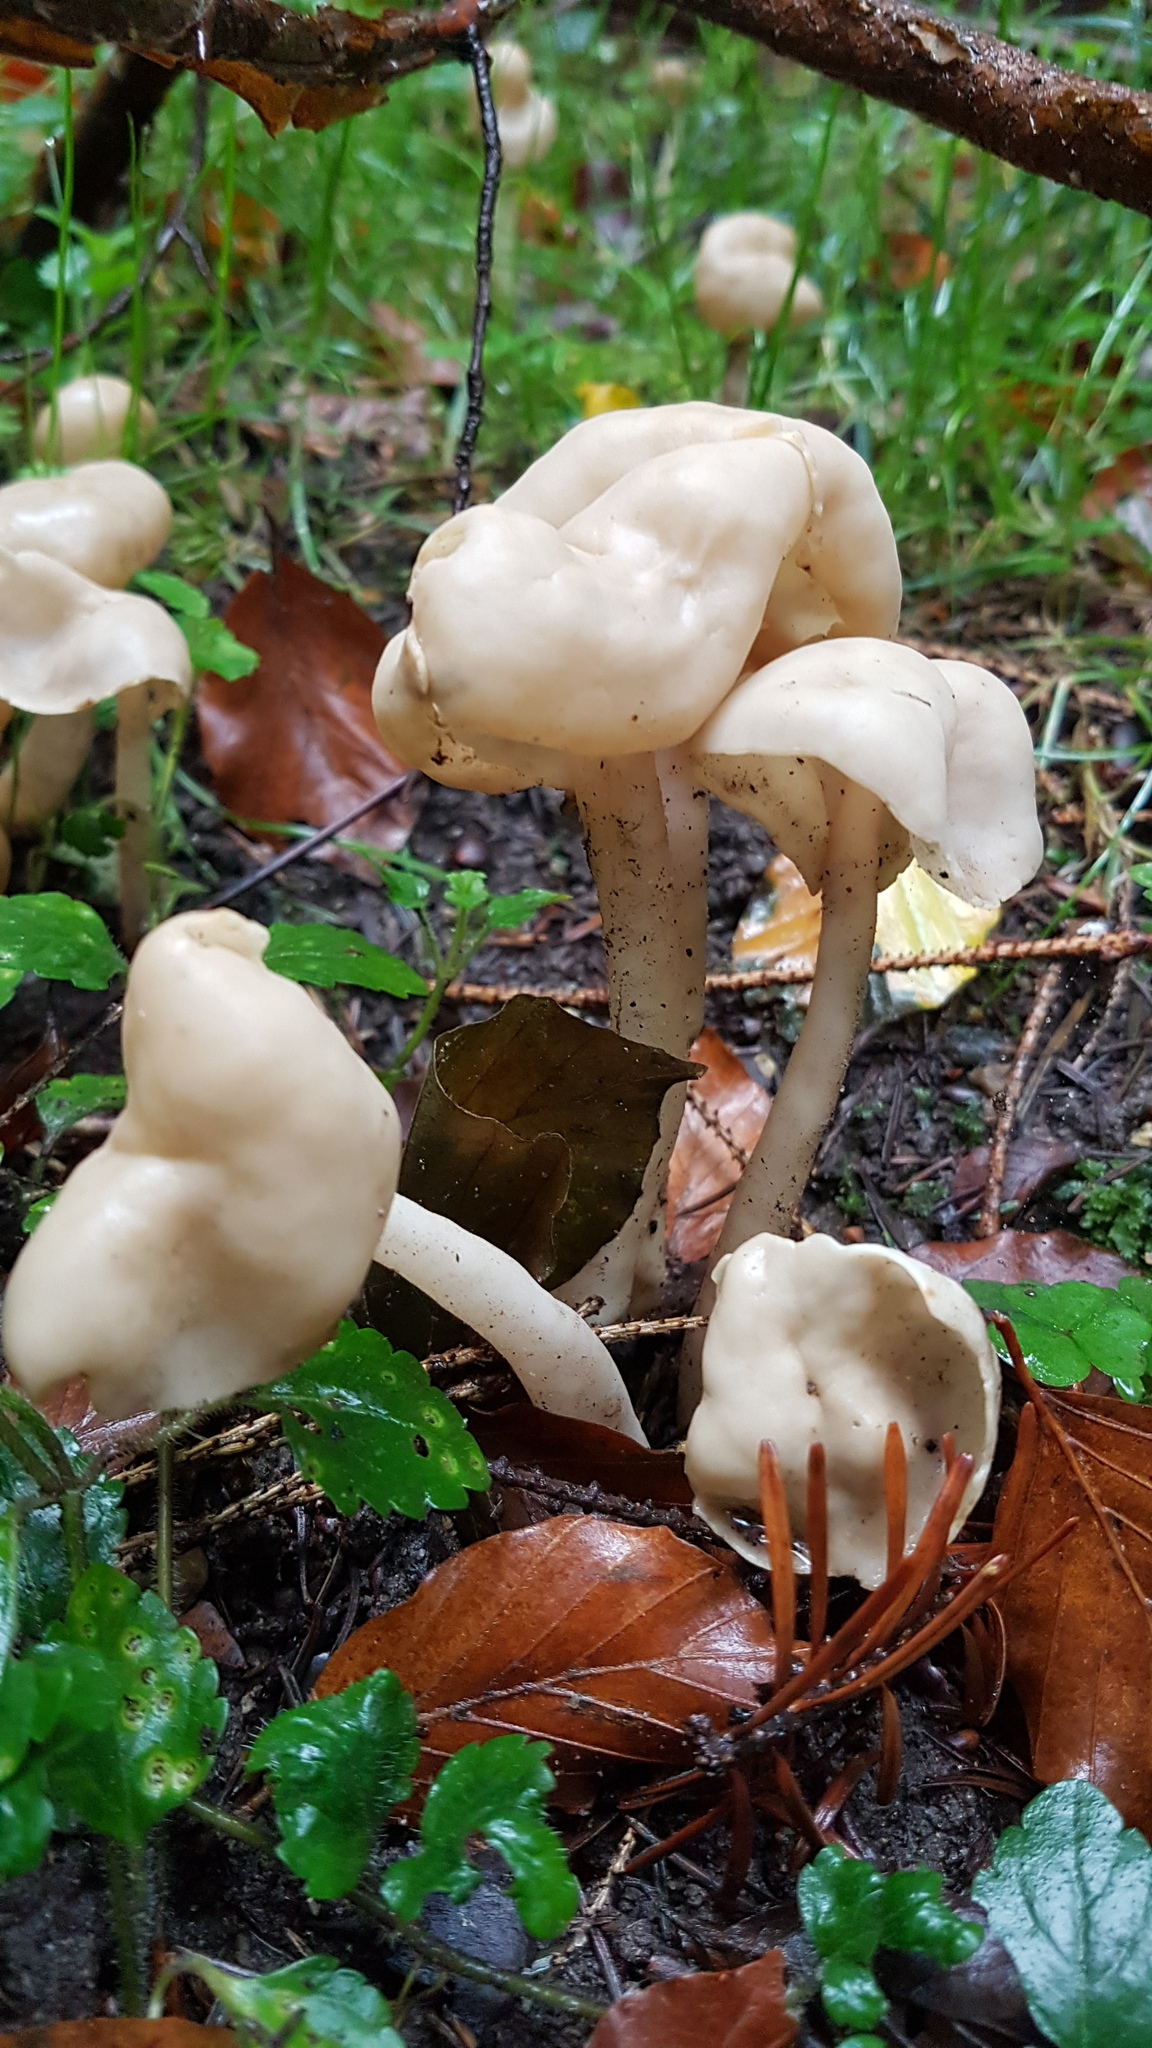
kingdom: Fungi
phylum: Ascomycota
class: Pezizomycetes
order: Pezizales
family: Helvellaceae
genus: Helvella
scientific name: Helvella elastica
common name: Elastic saddle
